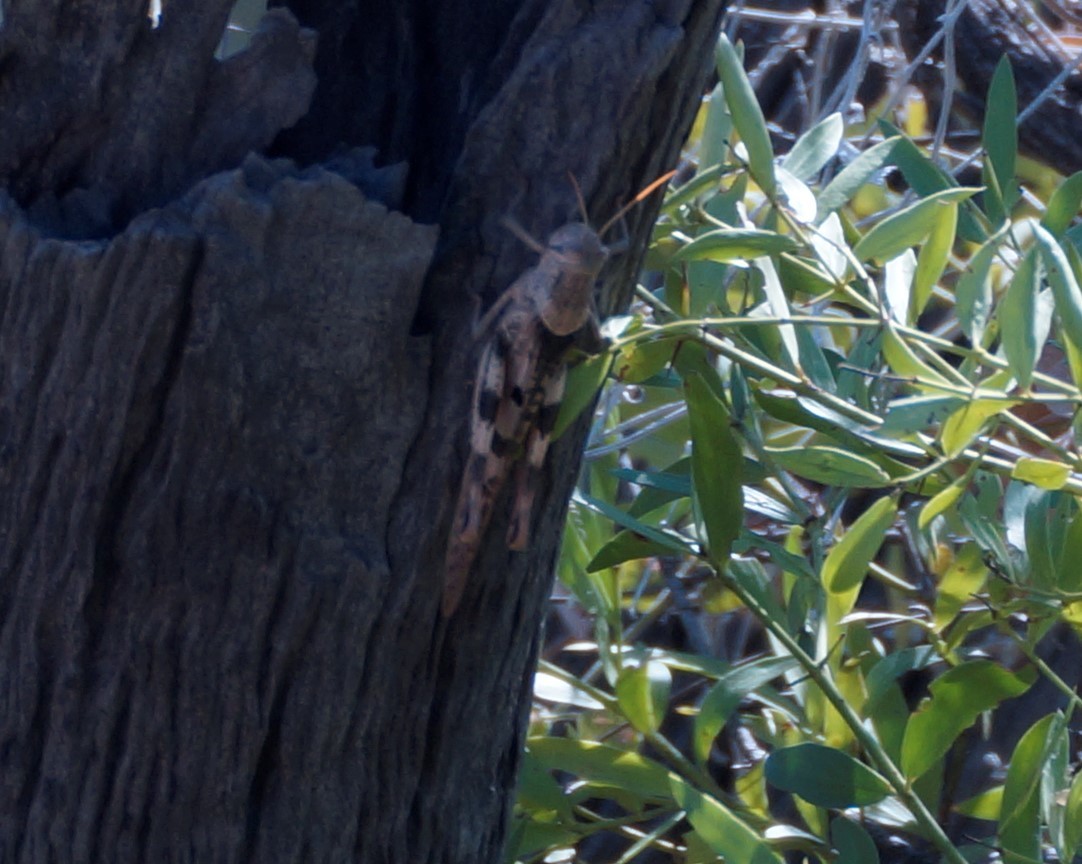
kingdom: Animalia
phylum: Arthropoda
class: Insecta
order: Orthoptera
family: Acrididae
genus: Austracris
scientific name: Austracris basalis
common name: Spotted spur-throated locust
